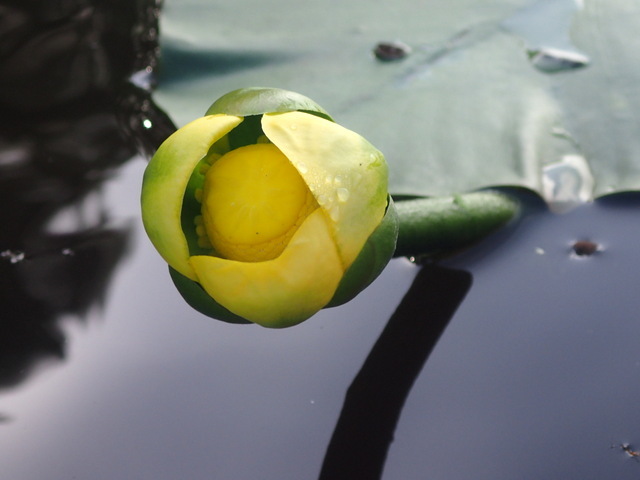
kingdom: Plantae
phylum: Tracheophyta
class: Magnoliopsida
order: Nymphaeales
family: Nymphaeaceae
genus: Nuphar
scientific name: Nuphar advena
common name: Spatter-dock
